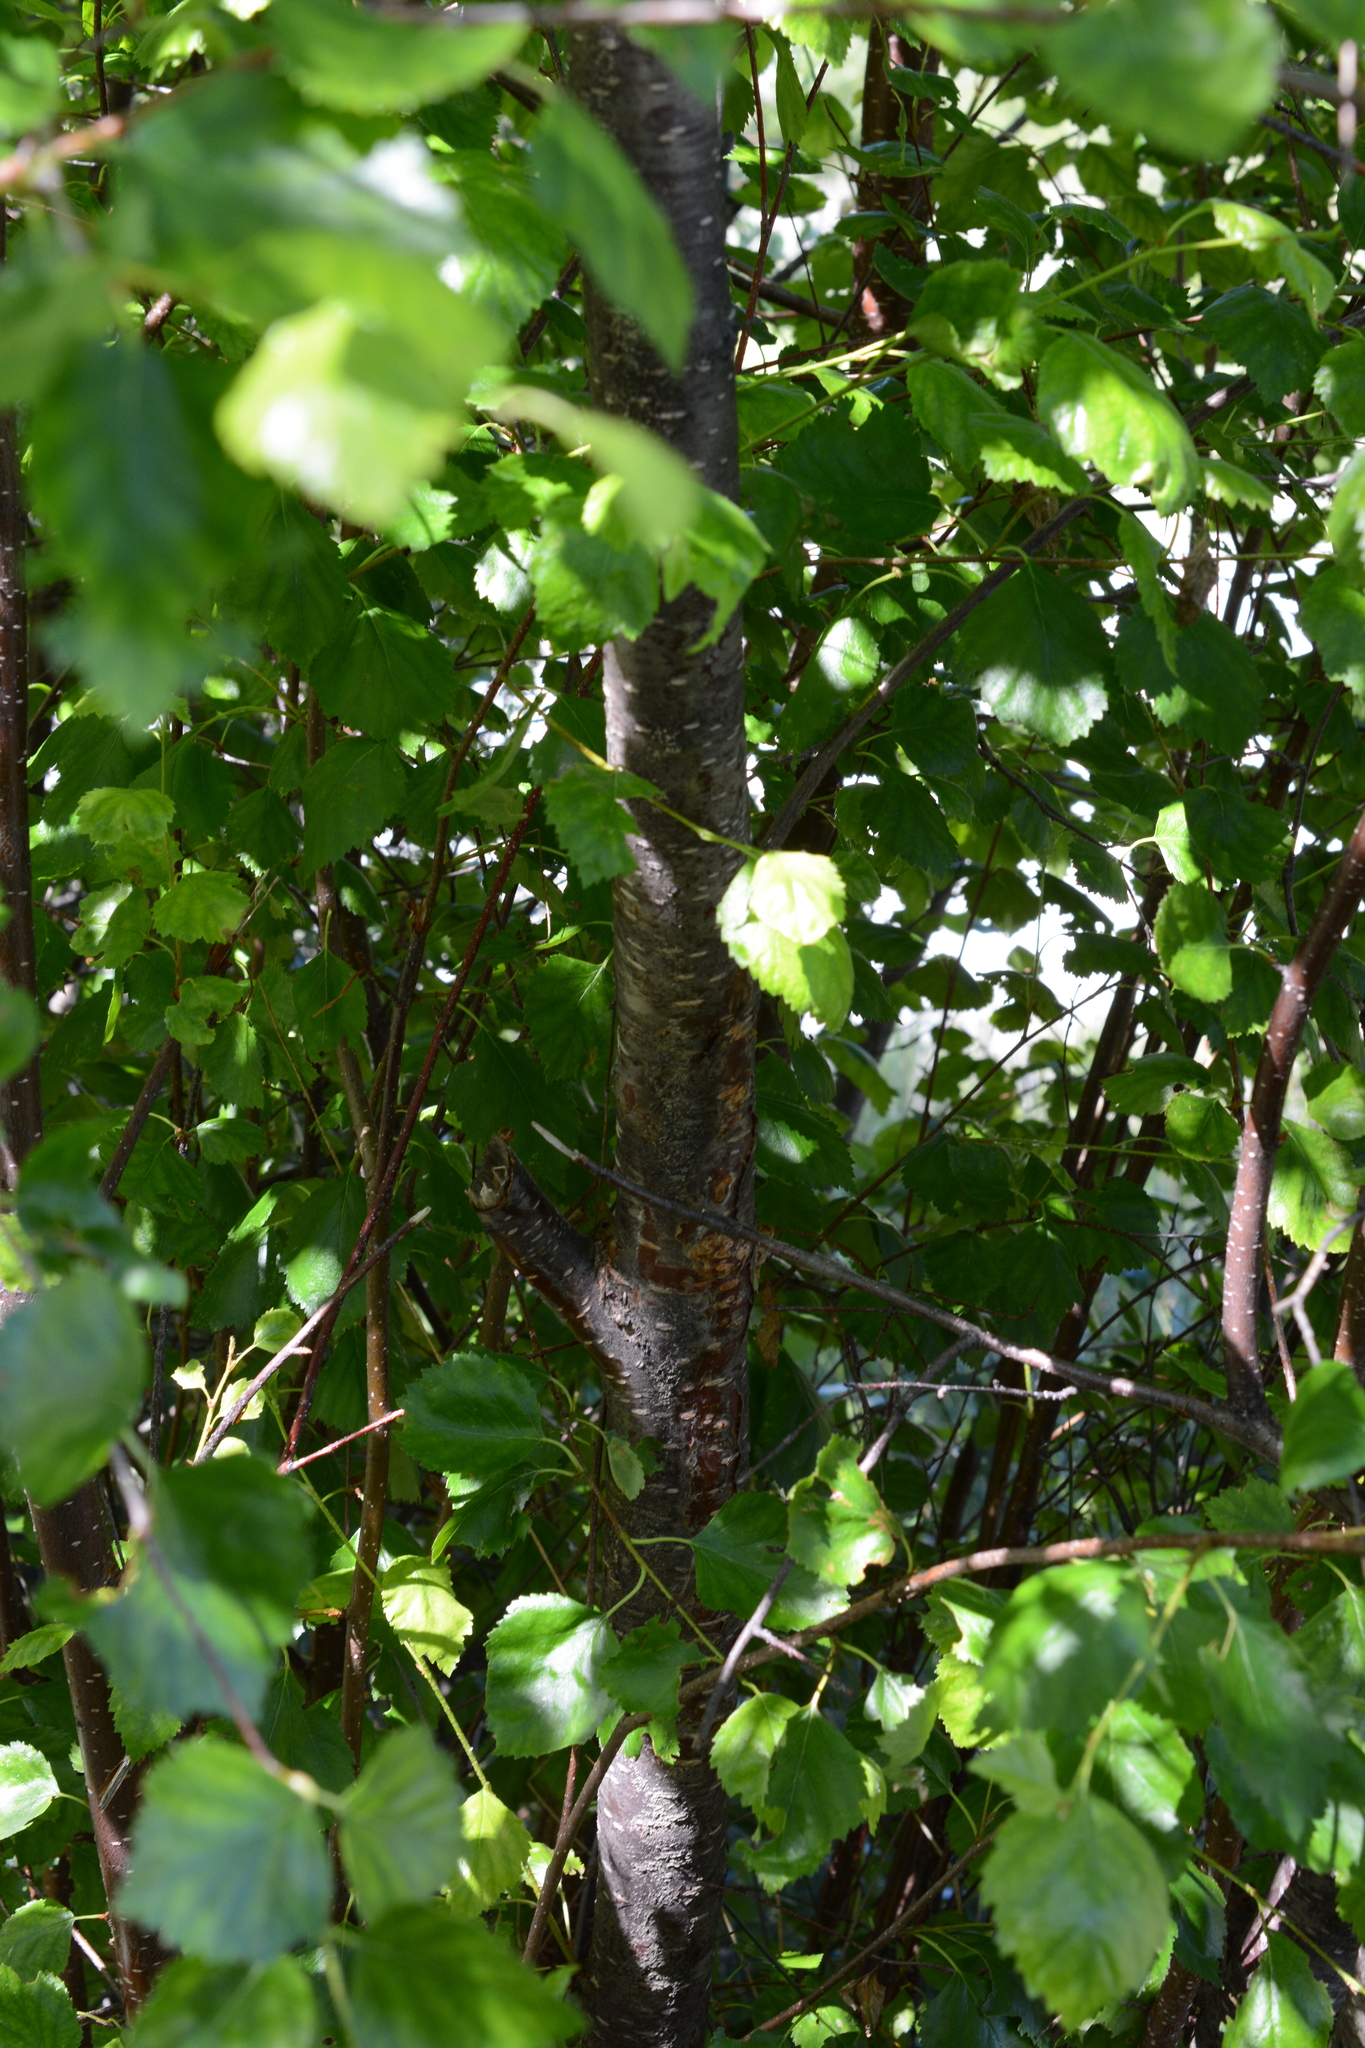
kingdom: Plantae
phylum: Tracheophyta
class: Magnoliopsida
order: Fagales
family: Betulaceae
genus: Betula
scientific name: Betula occidentalis
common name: River birch
